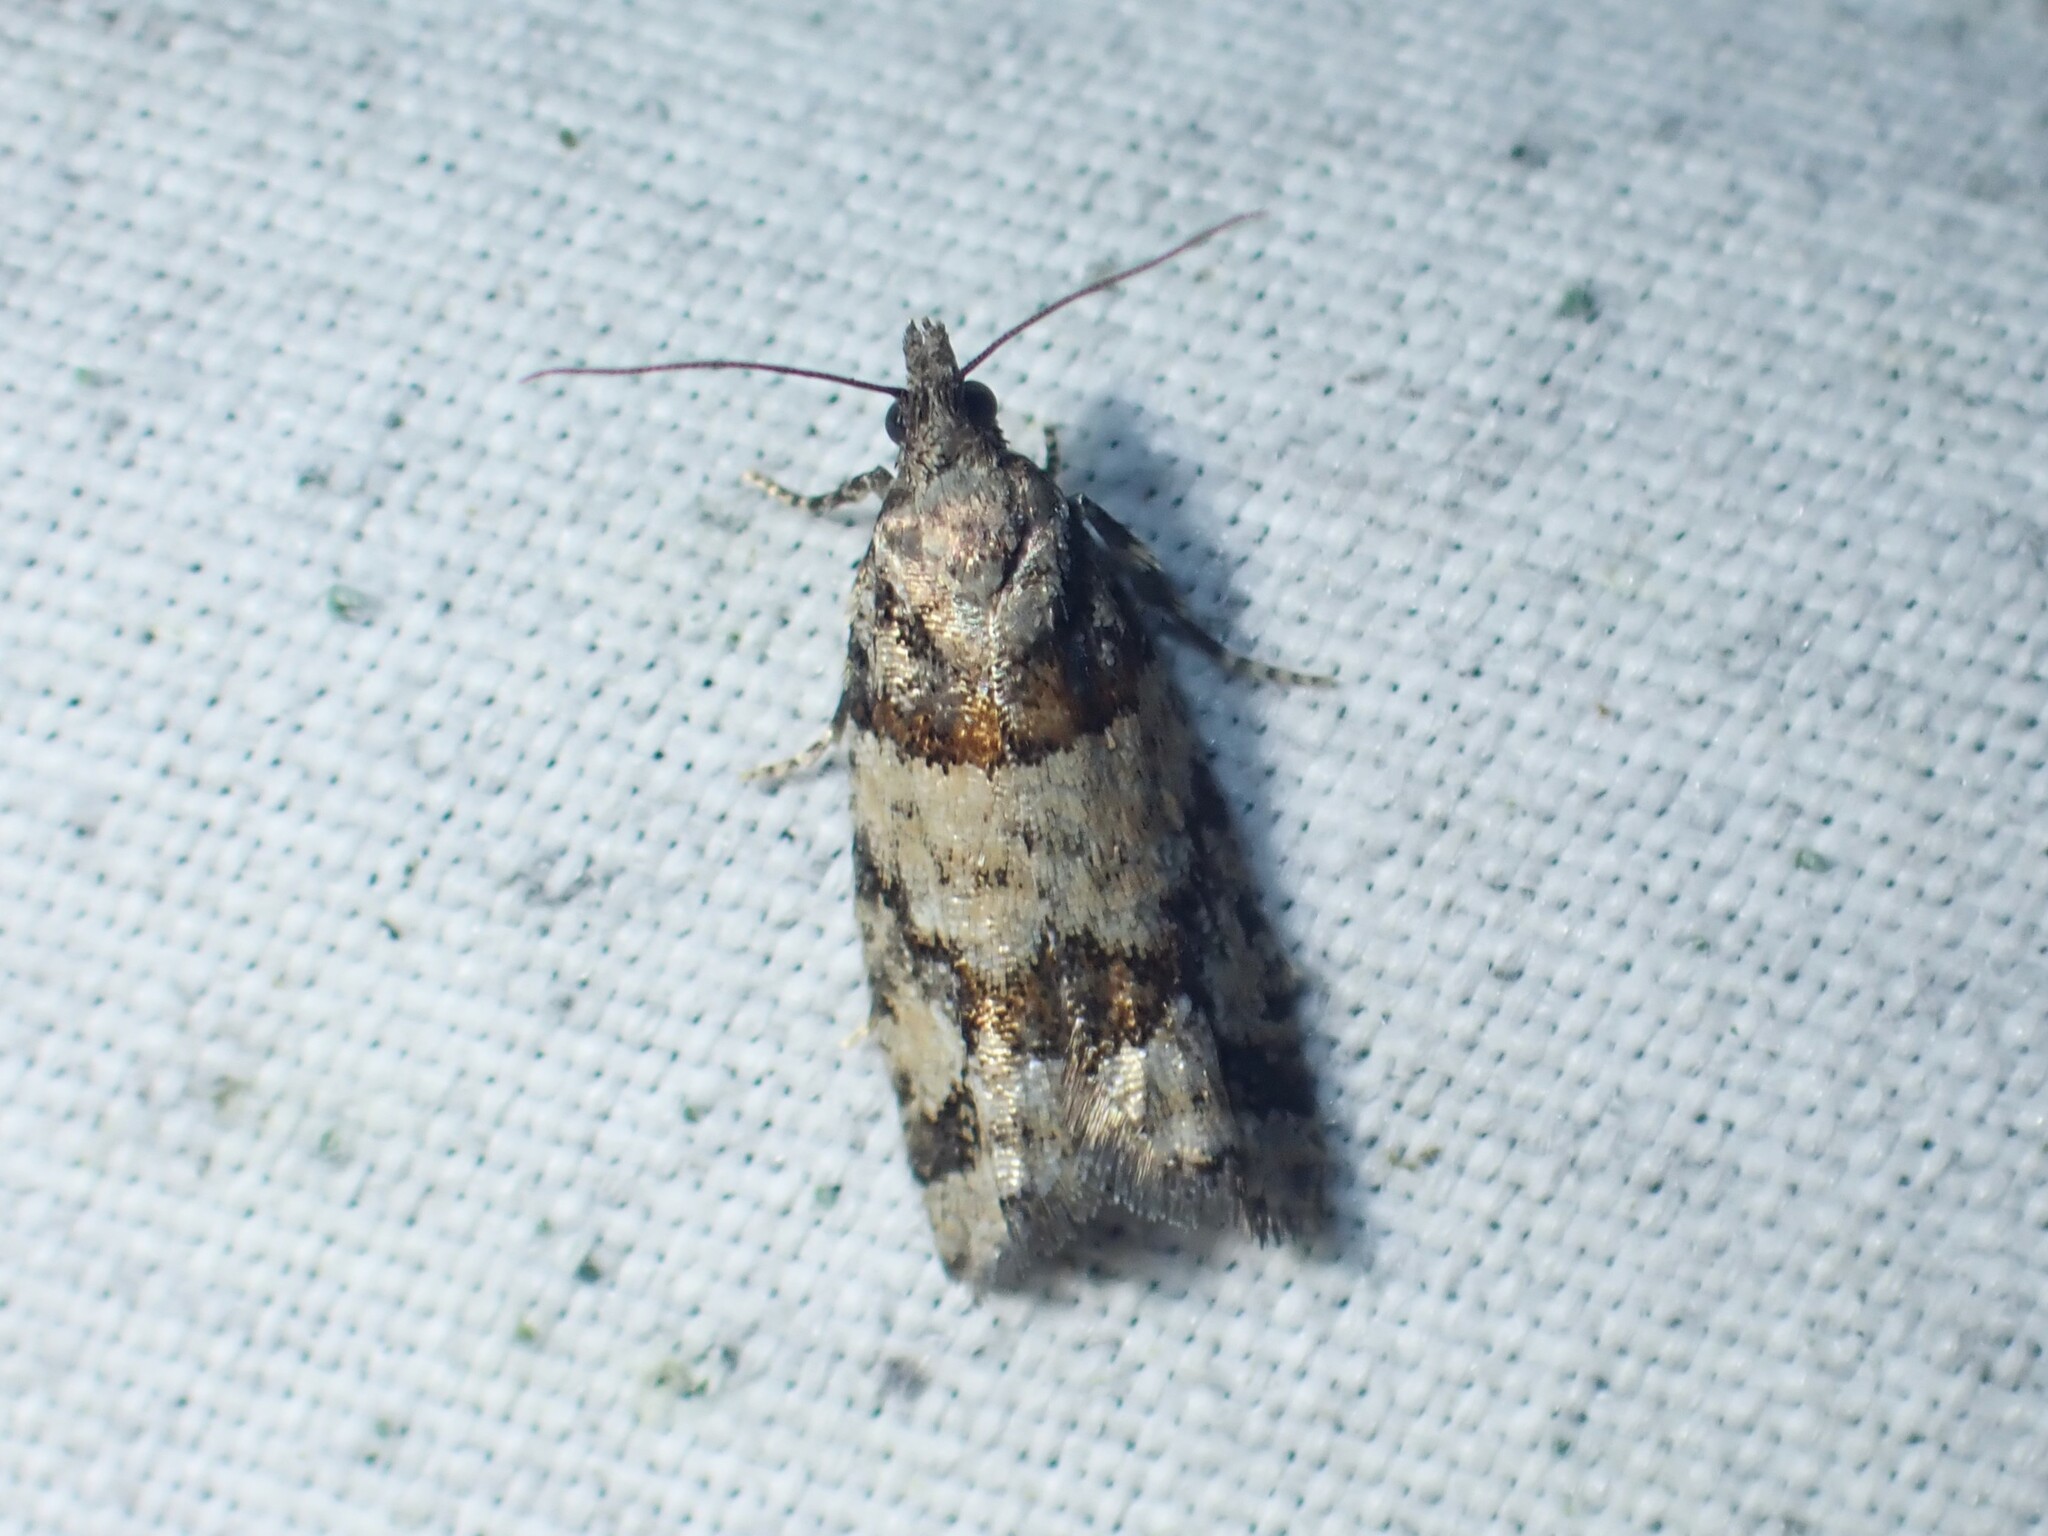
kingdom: Animalia
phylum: Arthropoda
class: Insecta
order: Lepidoptera
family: Tortricidae
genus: Epinotia
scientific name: Epinotia radicana
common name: Red-striped needleworm moth
